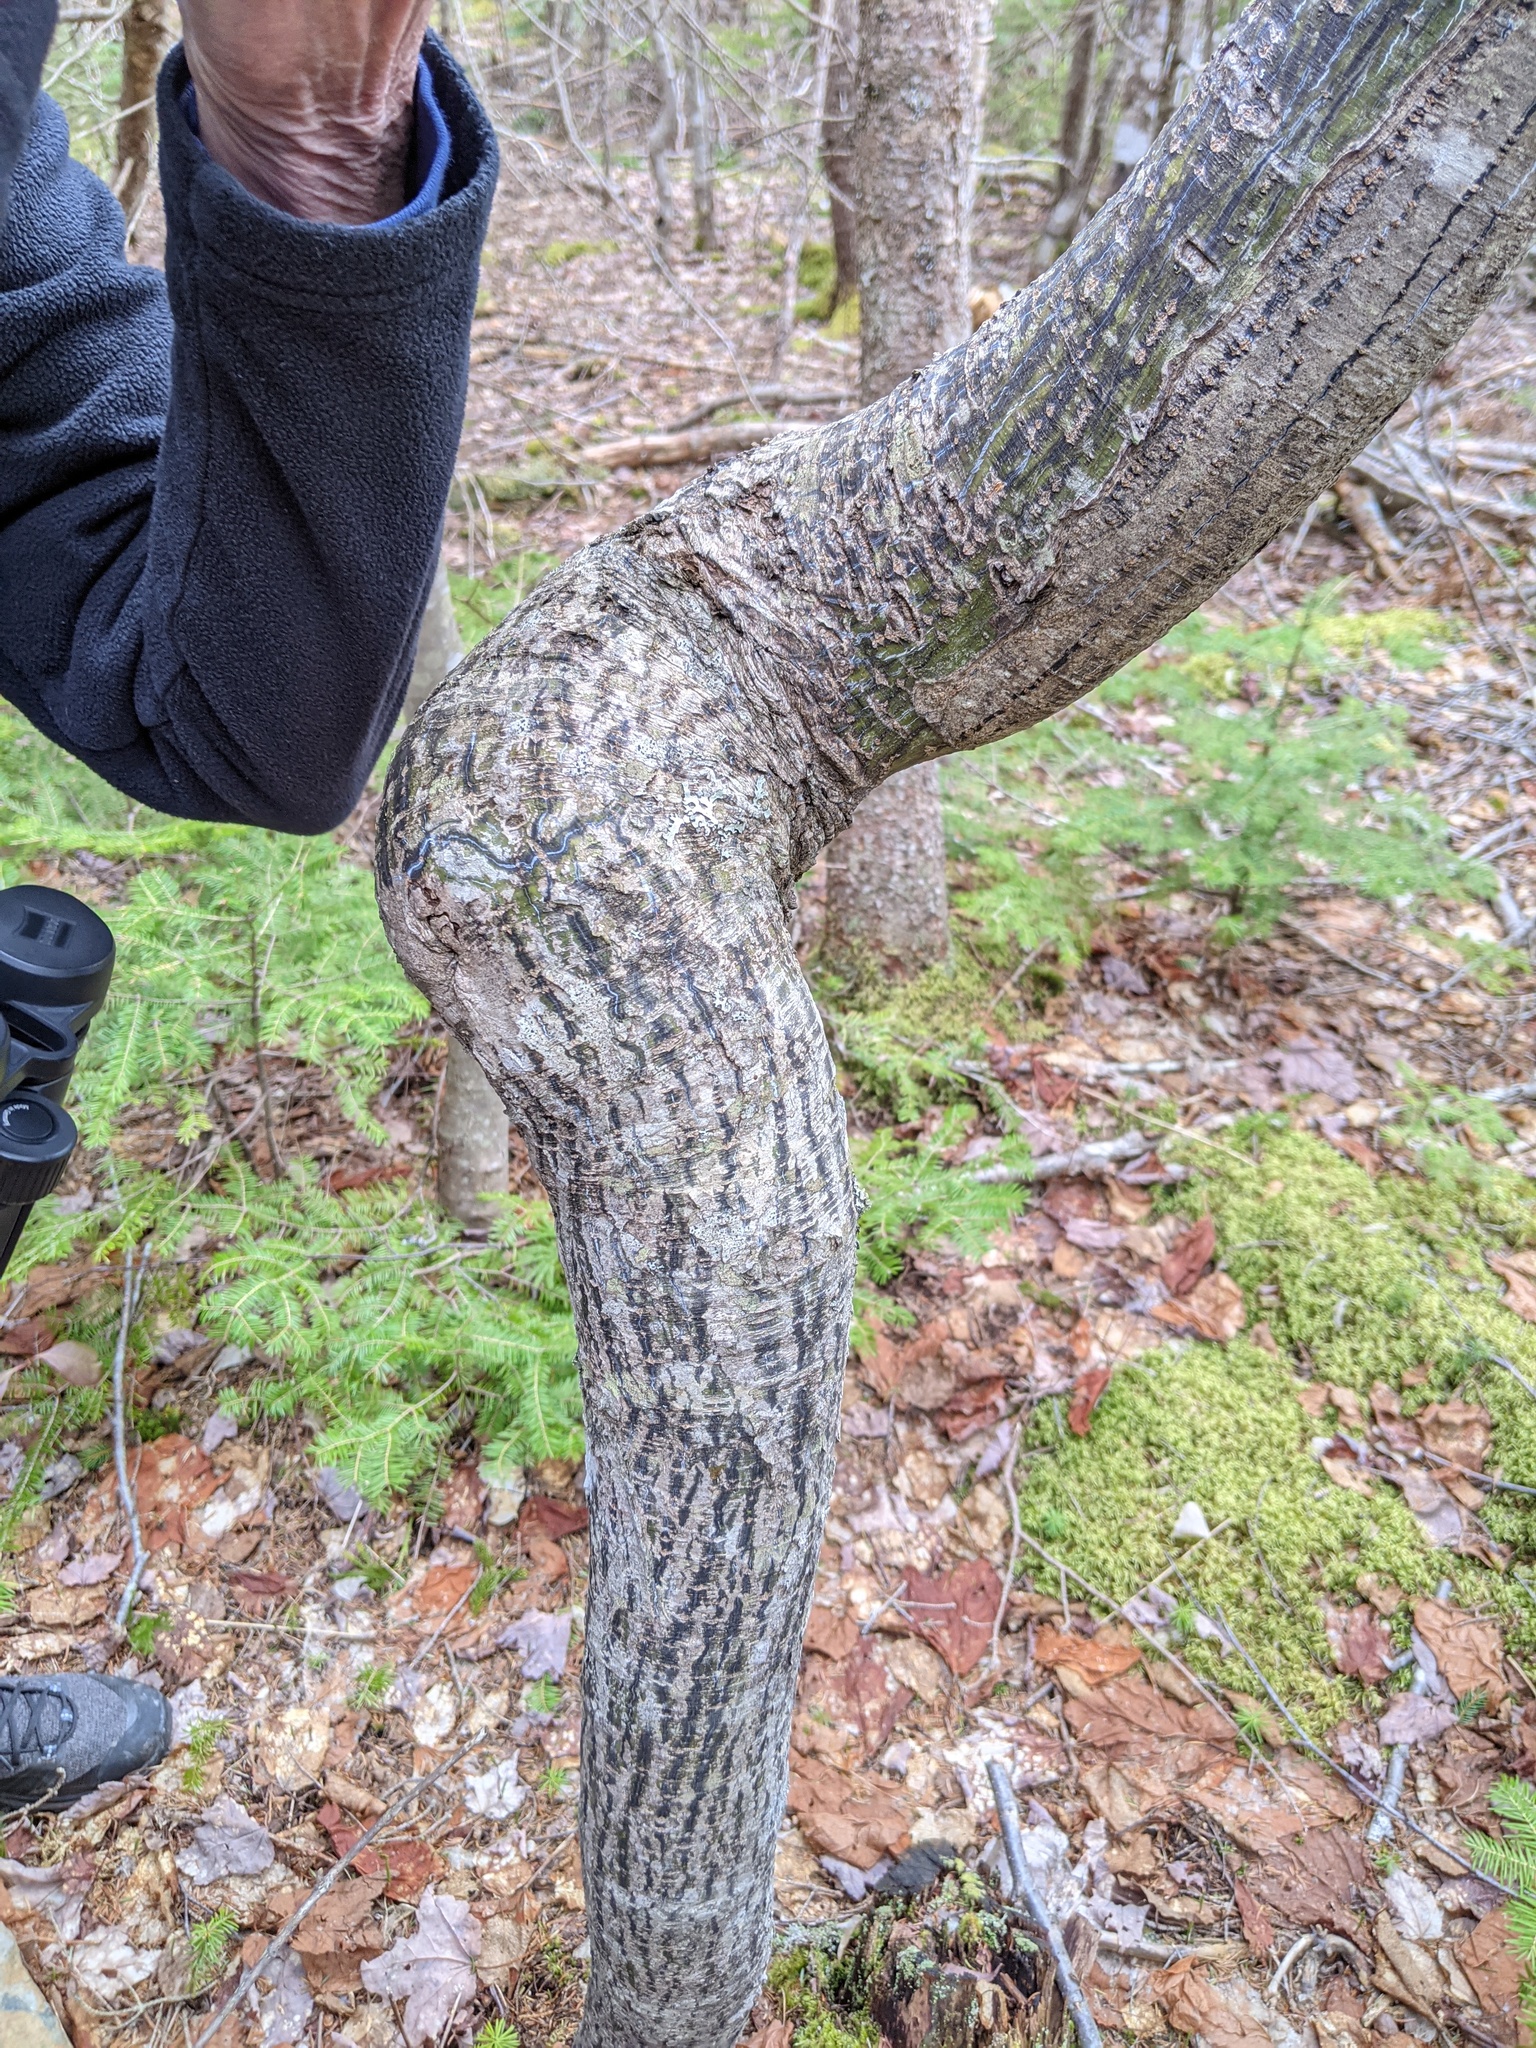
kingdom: Plantae
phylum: Tracheophyta
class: Magnoliopsida
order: Sapindales
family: Sapindaceae
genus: Acer
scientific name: Acer pensylvanicum
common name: Moosewood
